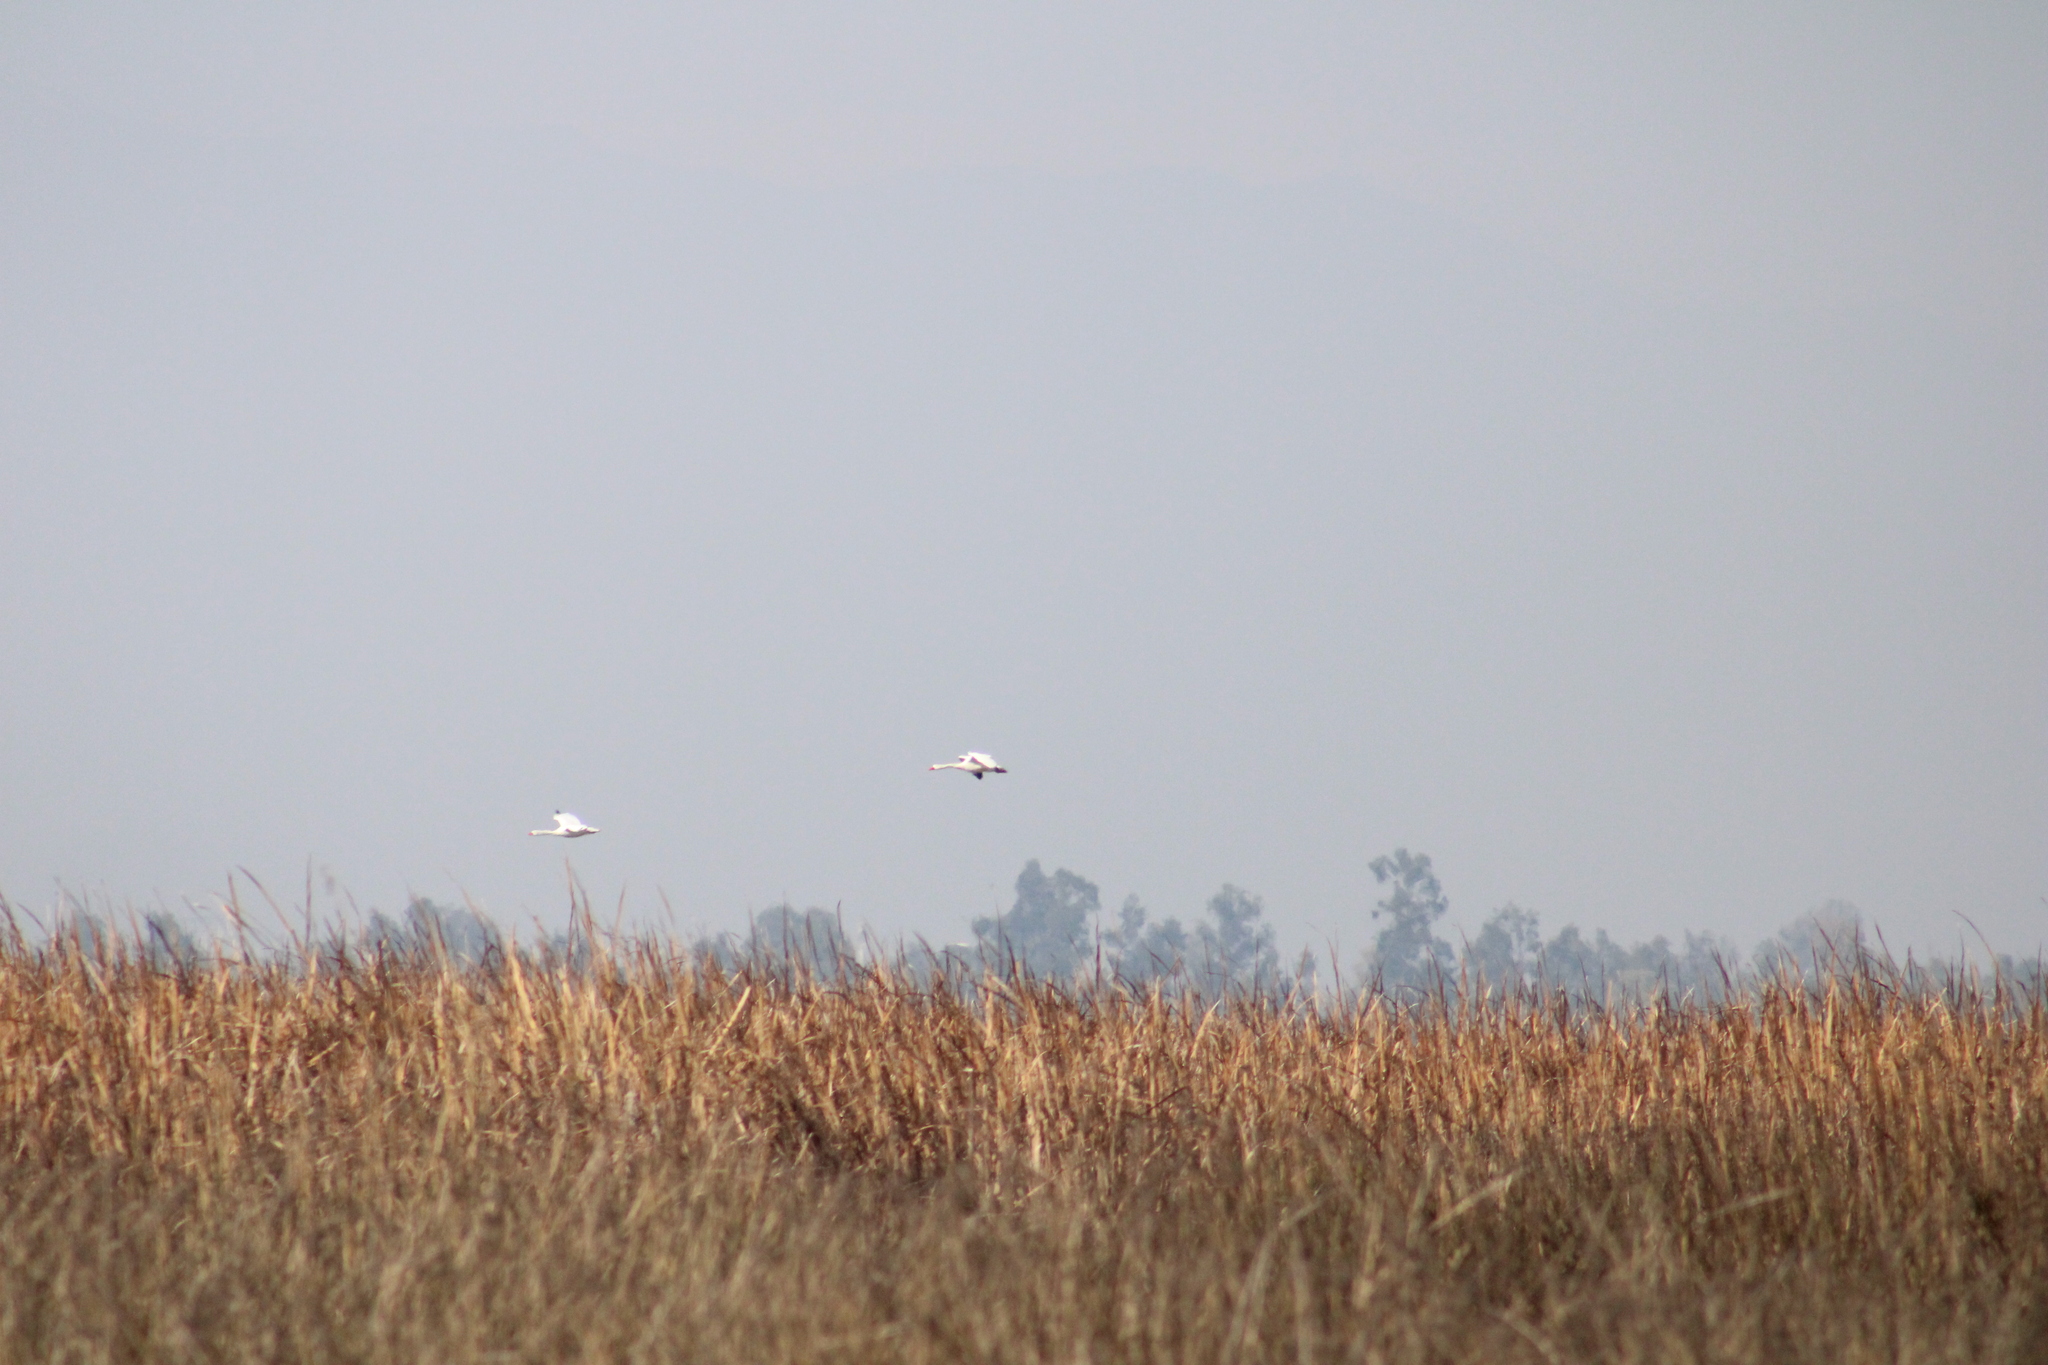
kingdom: Animalia
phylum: Chordata
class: Aves
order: Anseriformes
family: Anatidae
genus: Coscoroba
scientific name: Coscoroba coscoroba
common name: Coscoroba swan
